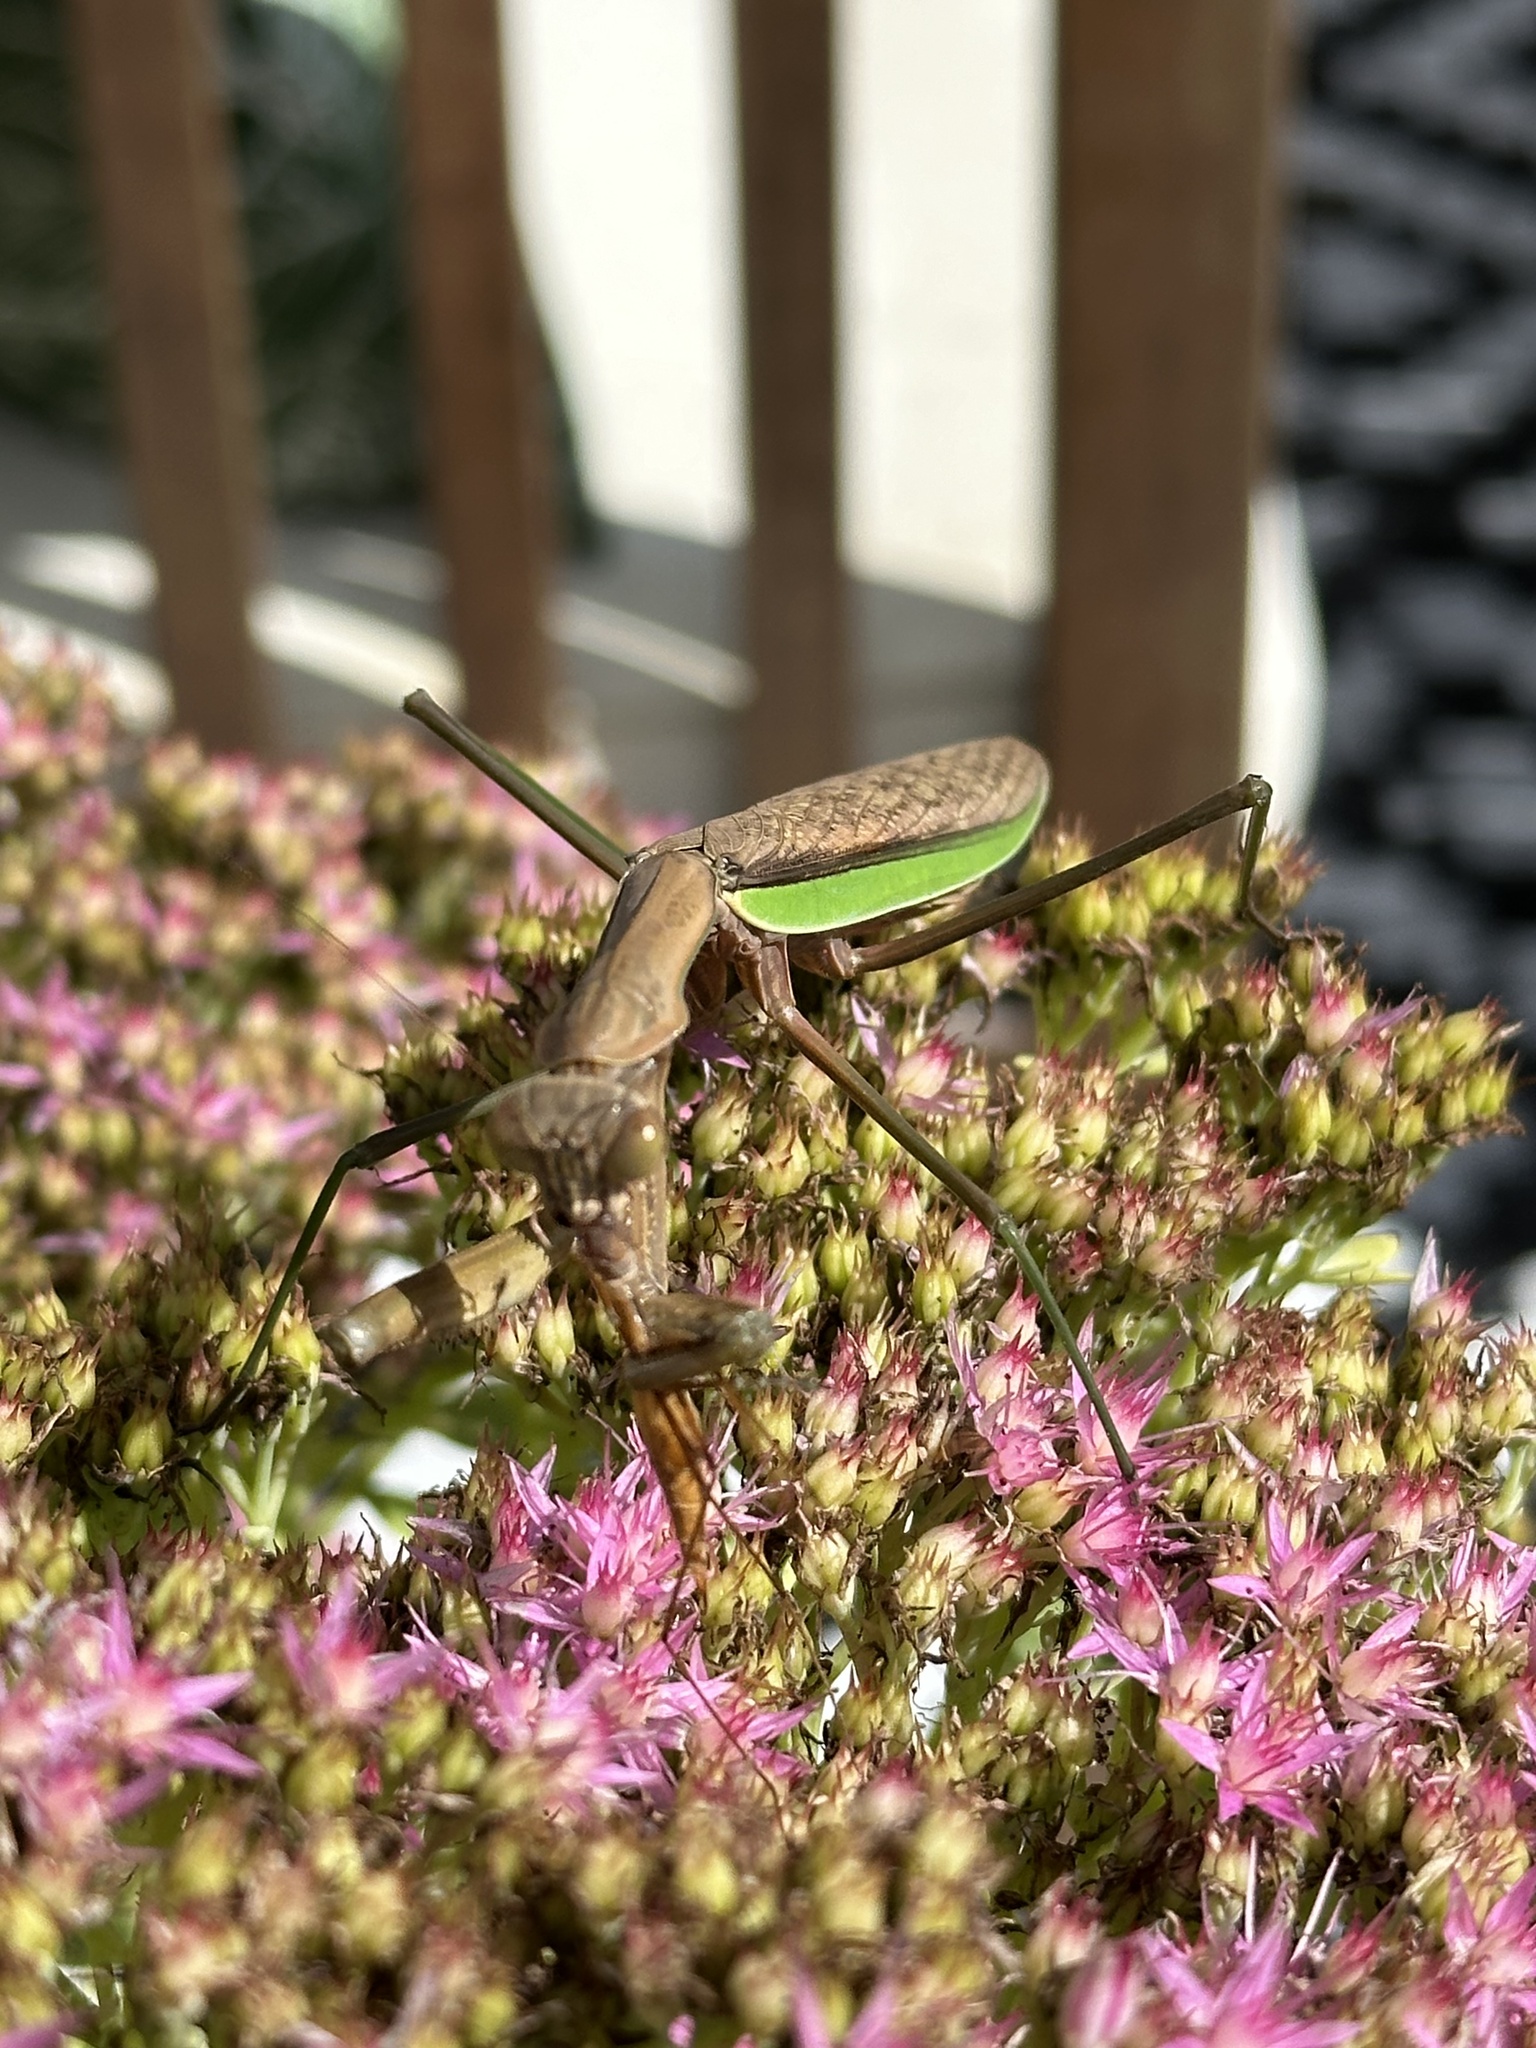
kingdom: Animalia
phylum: Arthropoda
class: Insecta
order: Mantodea
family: Mantidae
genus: Tenodera
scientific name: Tenodera sinensis
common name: Chinese mantis
